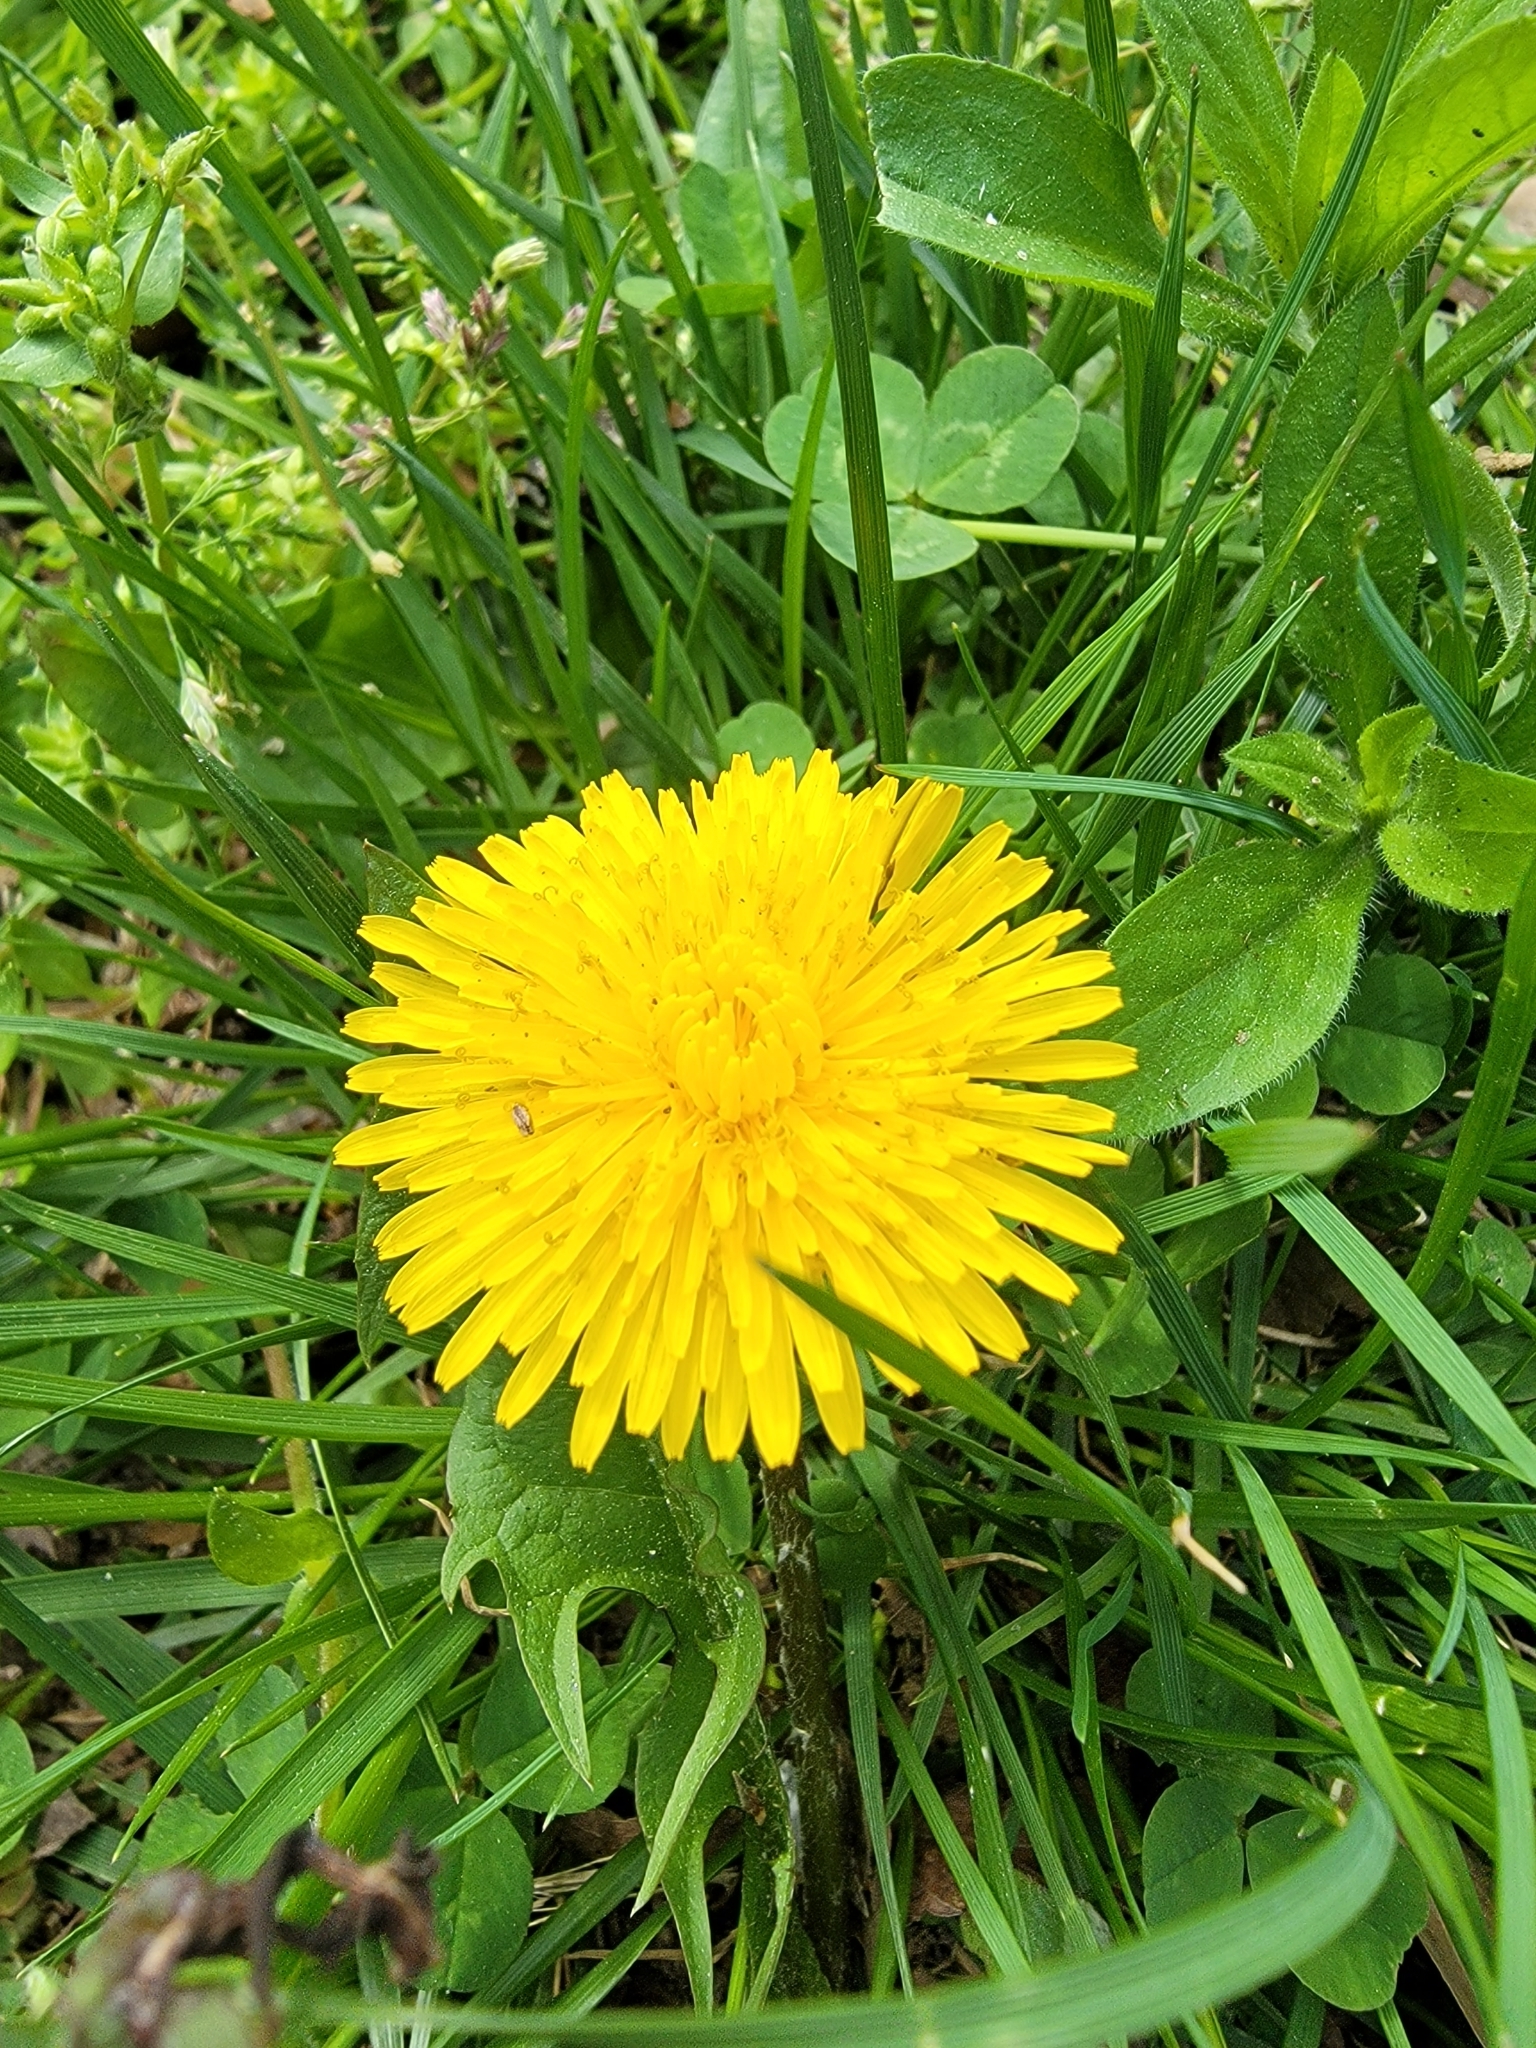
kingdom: Plantae
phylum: Tracheophyta
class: Magnoliopsida
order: Asterales
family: Asteraceae
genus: Taraxacum
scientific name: Taraxacum officinale
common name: Common dandelion
